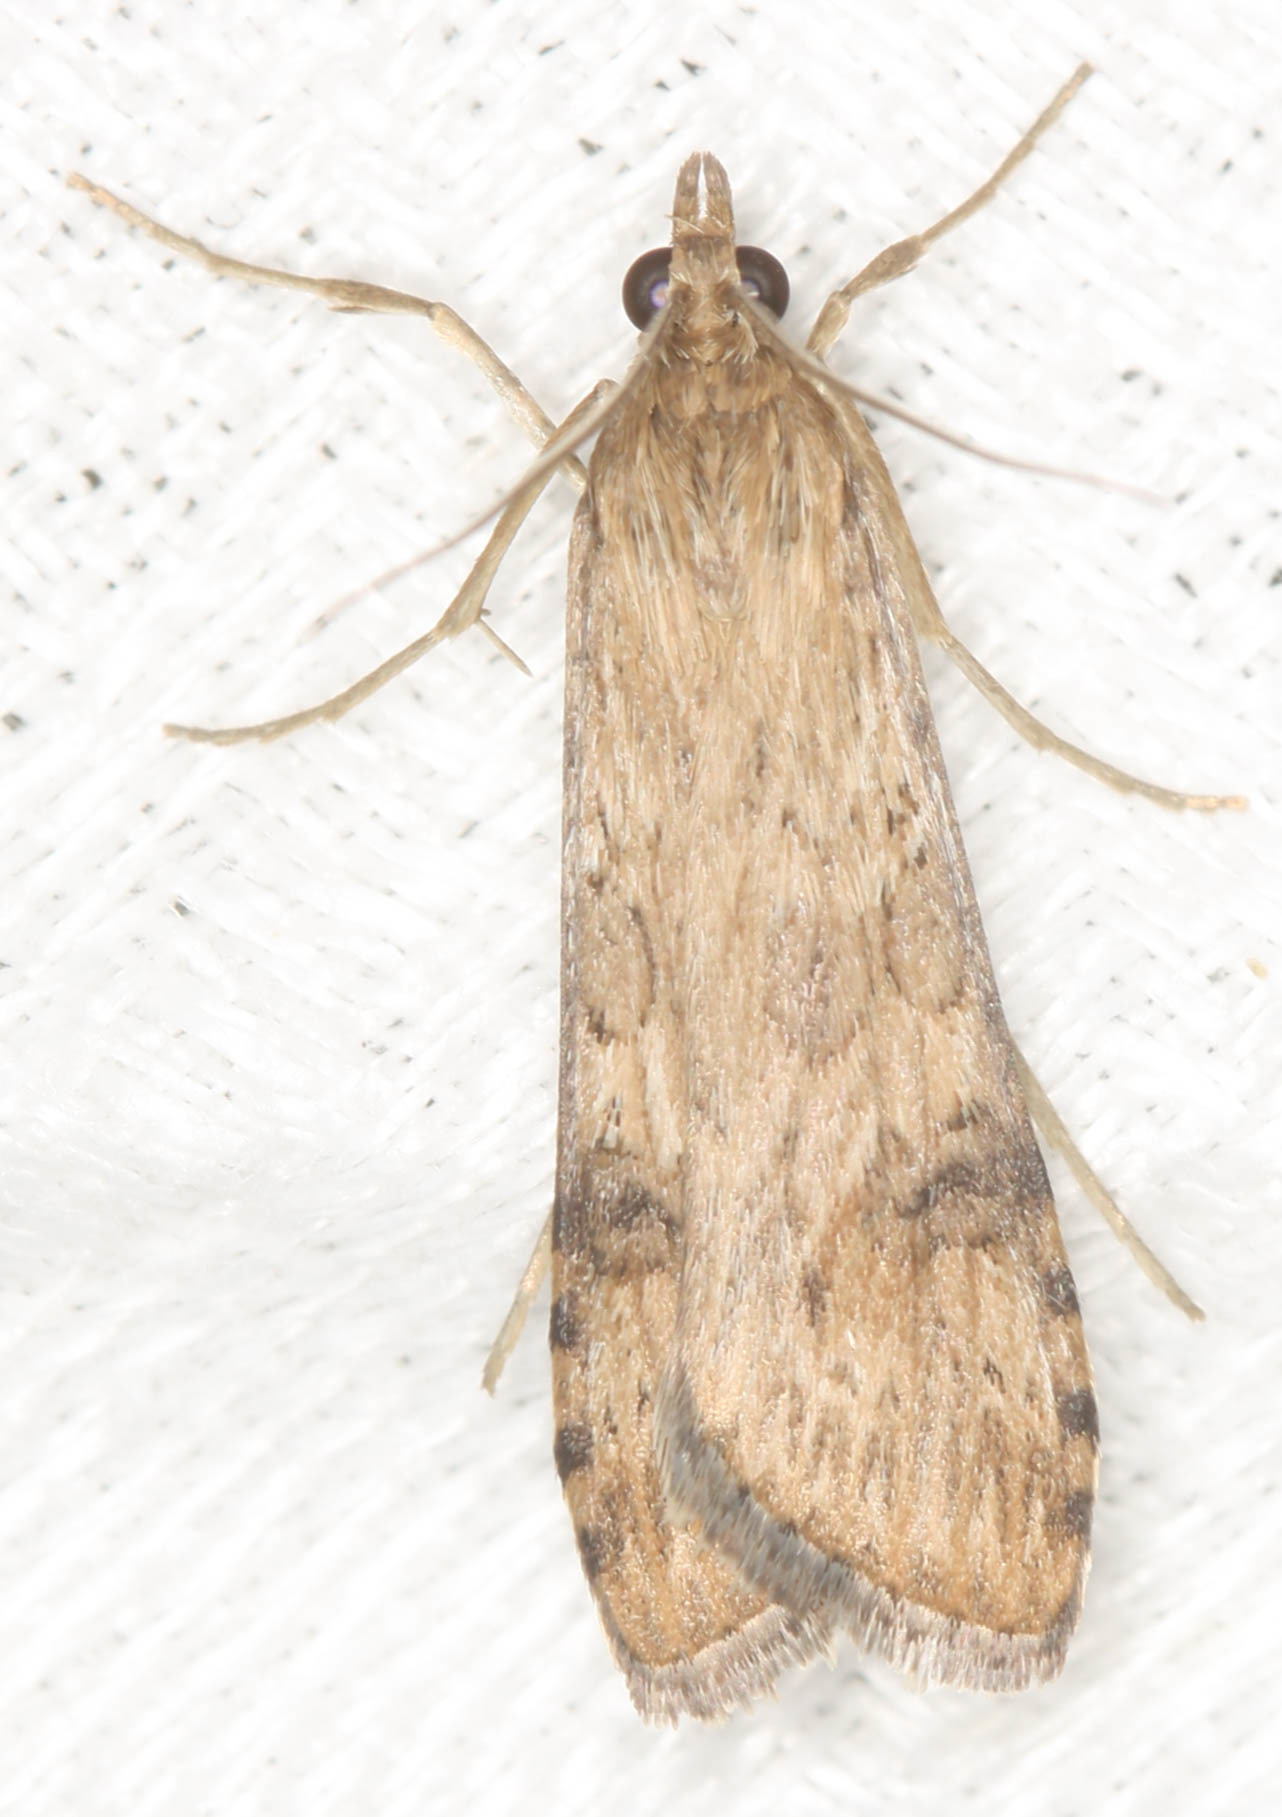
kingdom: Animalia
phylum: Arthropoda
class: Insecta
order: Lepidoptera
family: Crambidae
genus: Nomophila
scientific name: Nomophila nearctica
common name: American rush veneer
